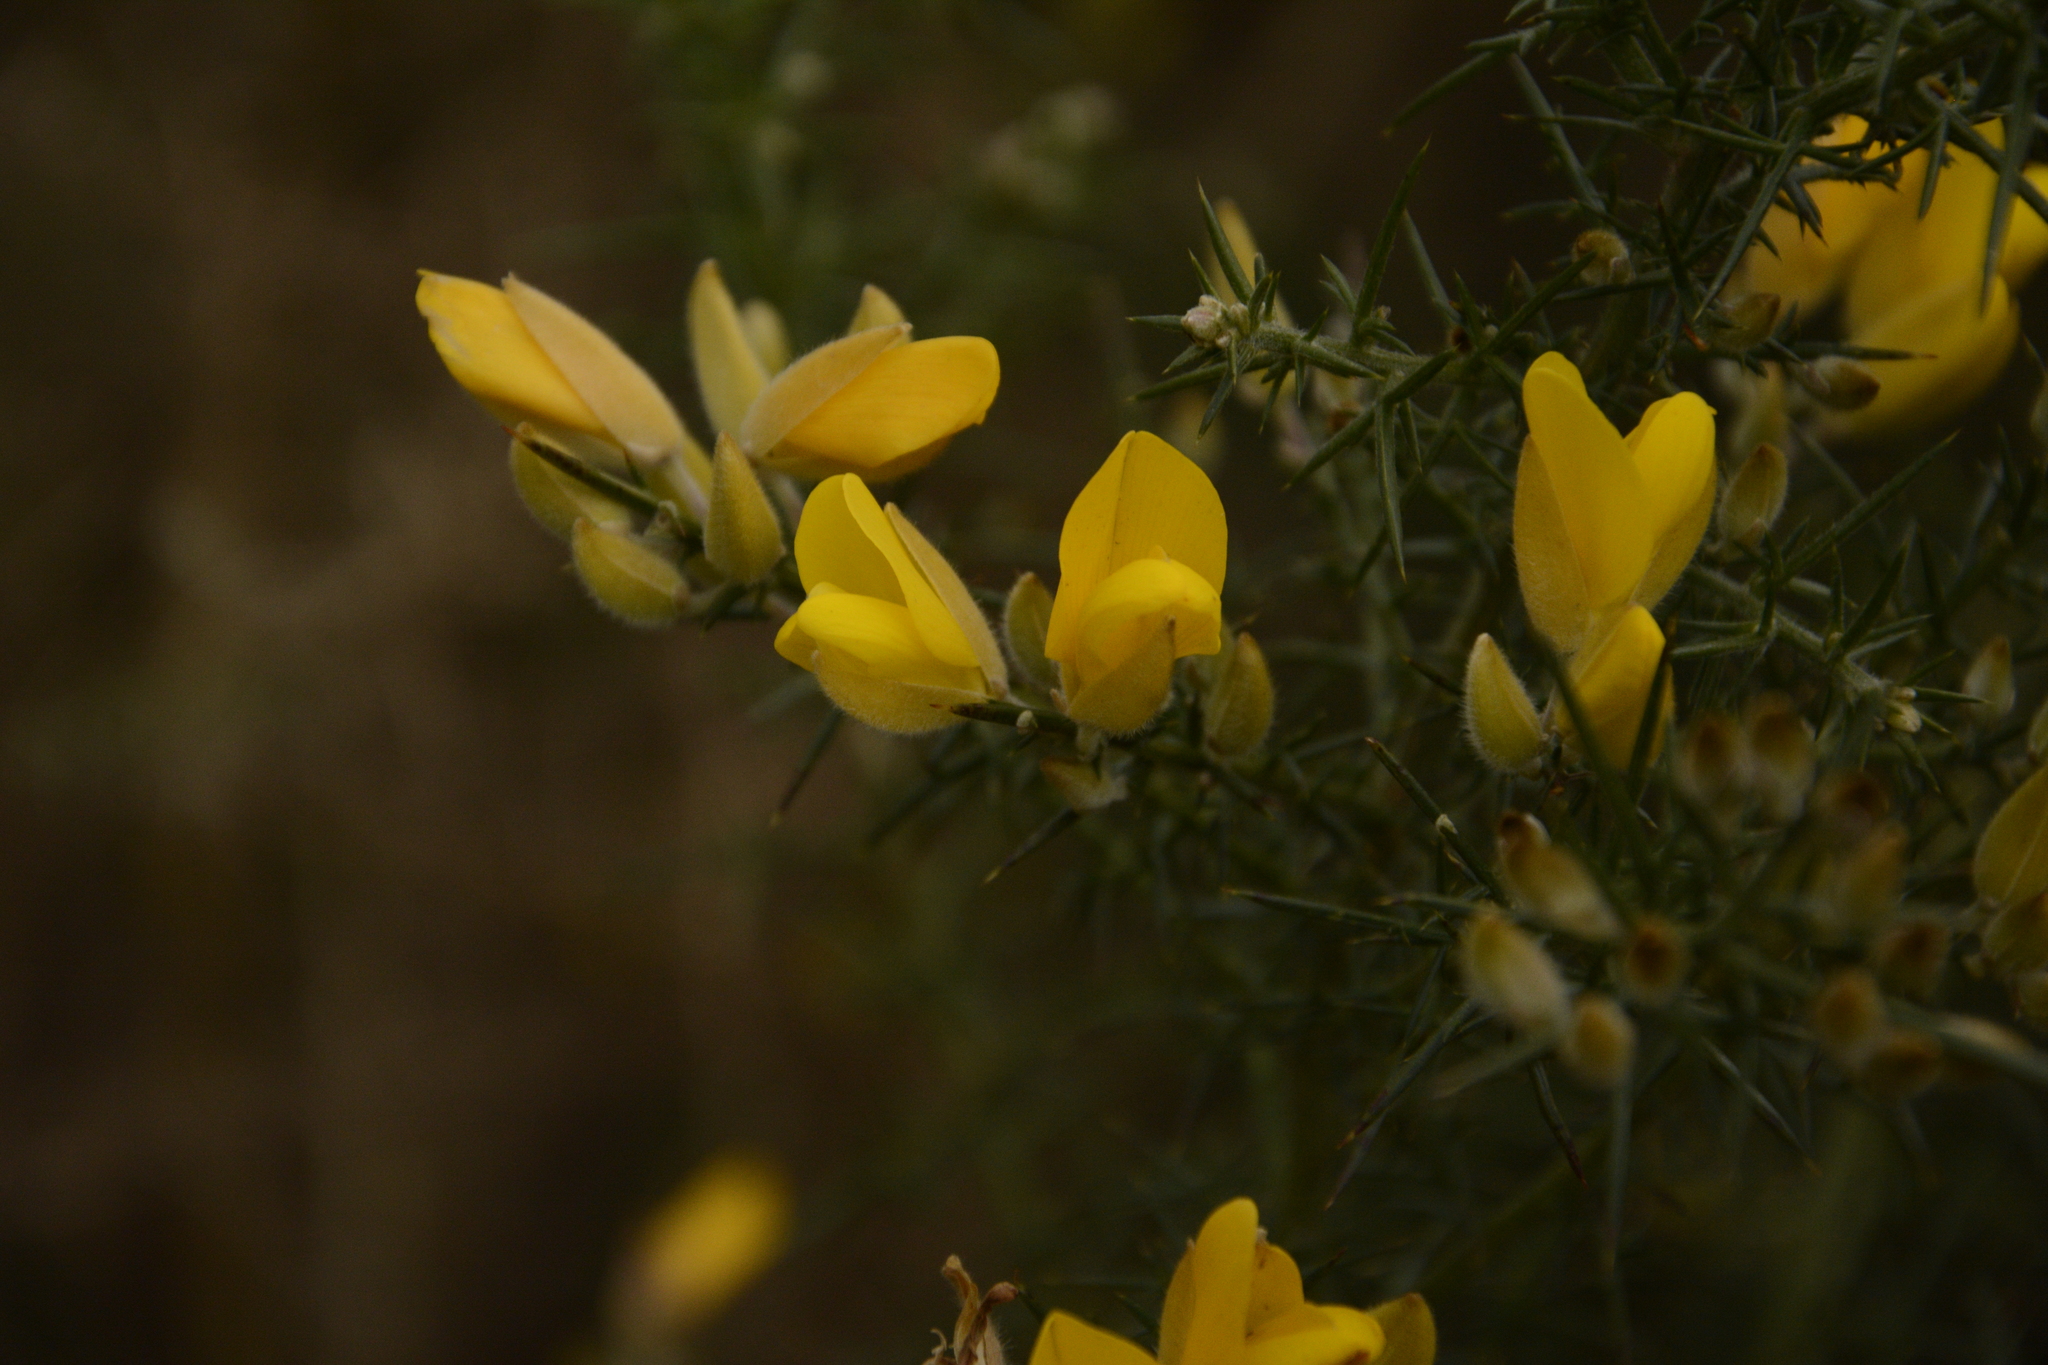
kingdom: Plantae
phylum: Tracheophyta
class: Magnoliopsida
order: Fabales
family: Fabaceae
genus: Ulex
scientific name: Ulex europaeus
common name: Common gorse
